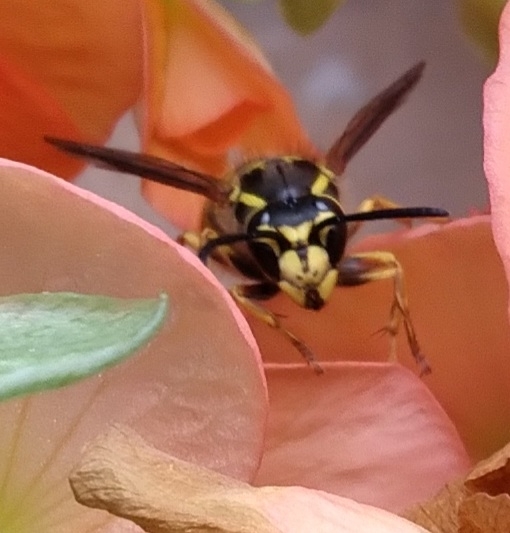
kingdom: Animalia
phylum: Arthropoda
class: Insecta
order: Hymenoptera
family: Vespidae
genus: Vespula
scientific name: Vespula
